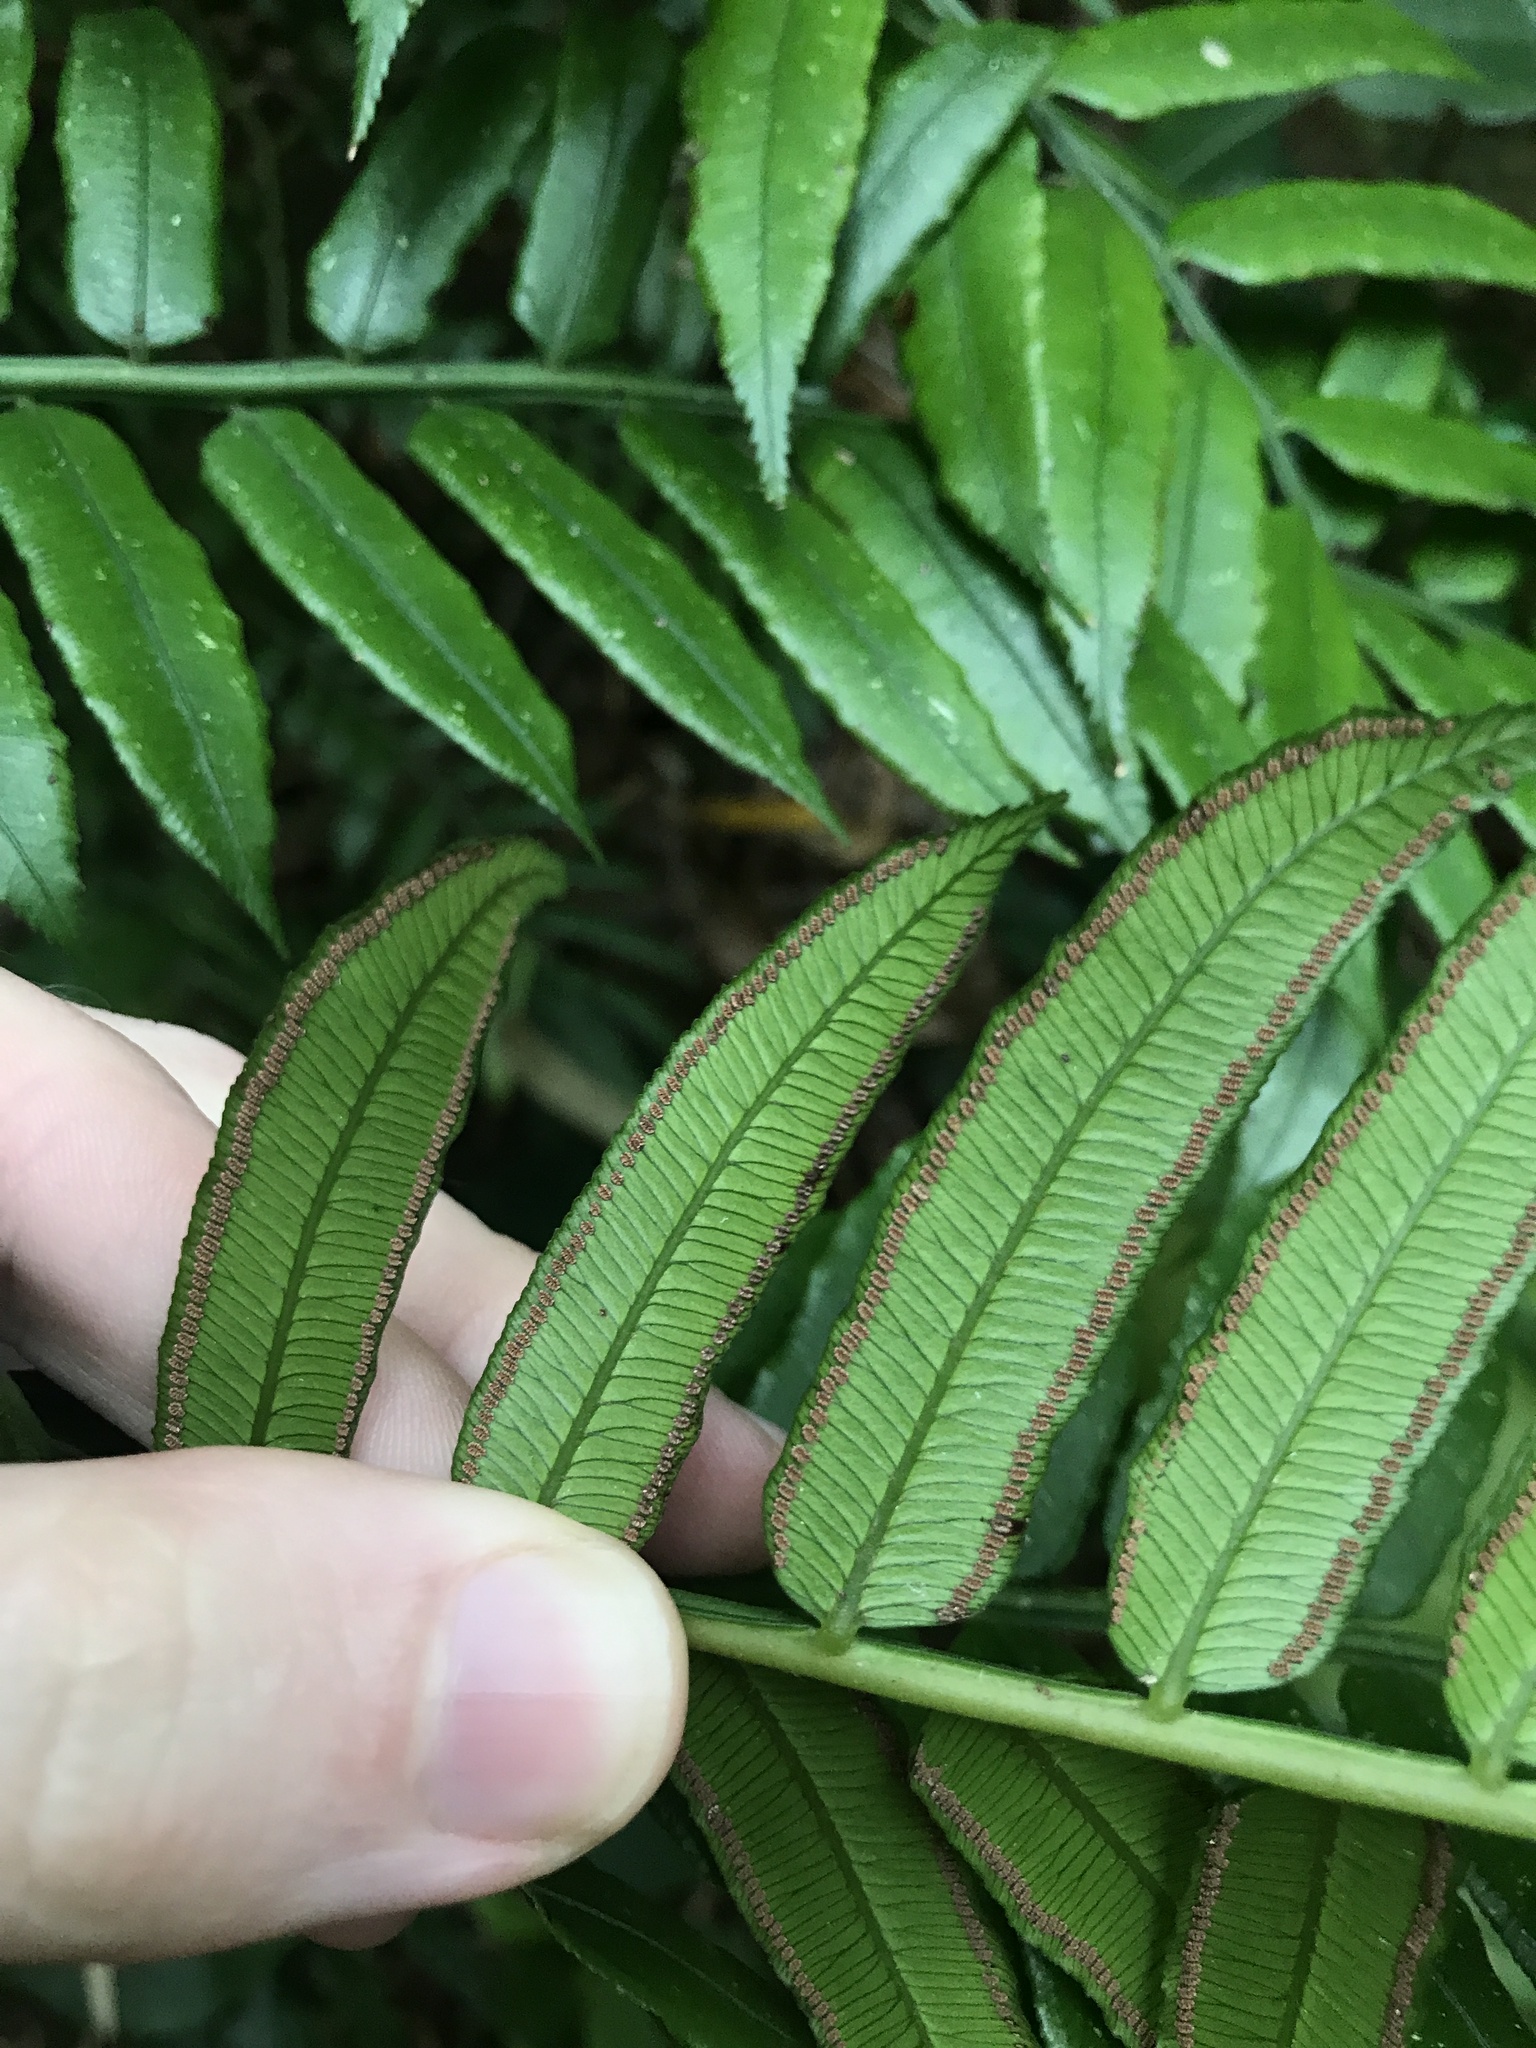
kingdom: Plantae
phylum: Tracheophyta
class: Polypodiopsida
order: Marattiales
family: Marattiaceae
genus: Angiopteris
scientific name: Angiopteris lygodiifolia
